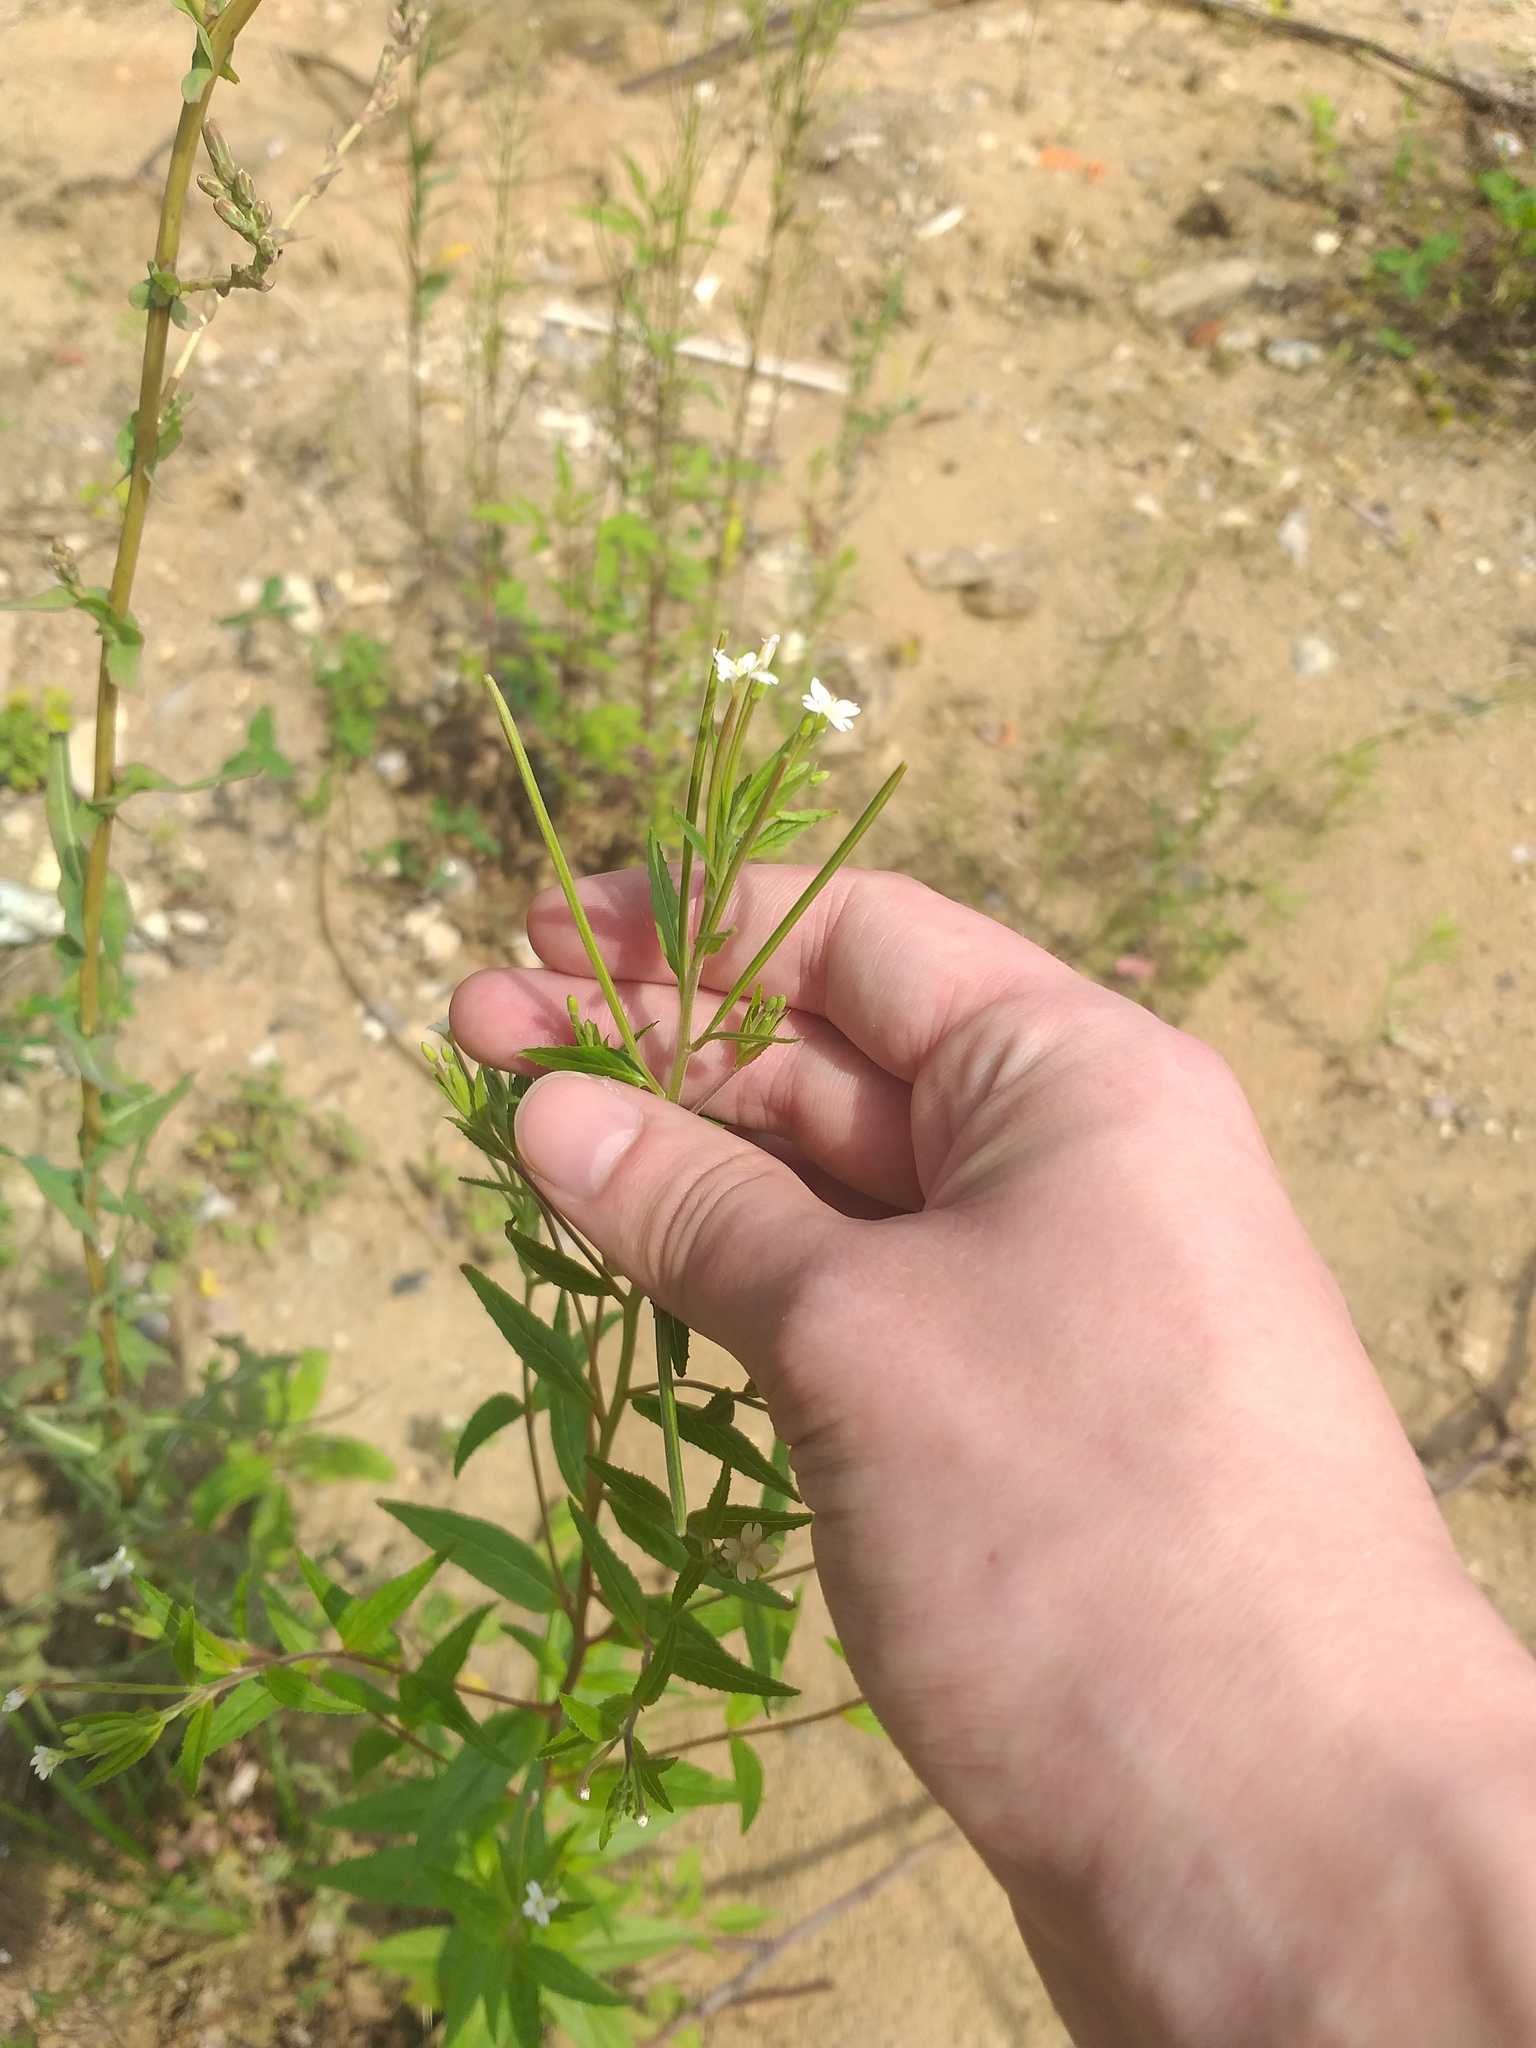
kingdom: Plantae
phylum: Tracheophyta
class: Magnoliopsida
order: Myrtales
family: Onagraceae
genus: Epilobium
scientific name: Epilobium pseudorubescens
